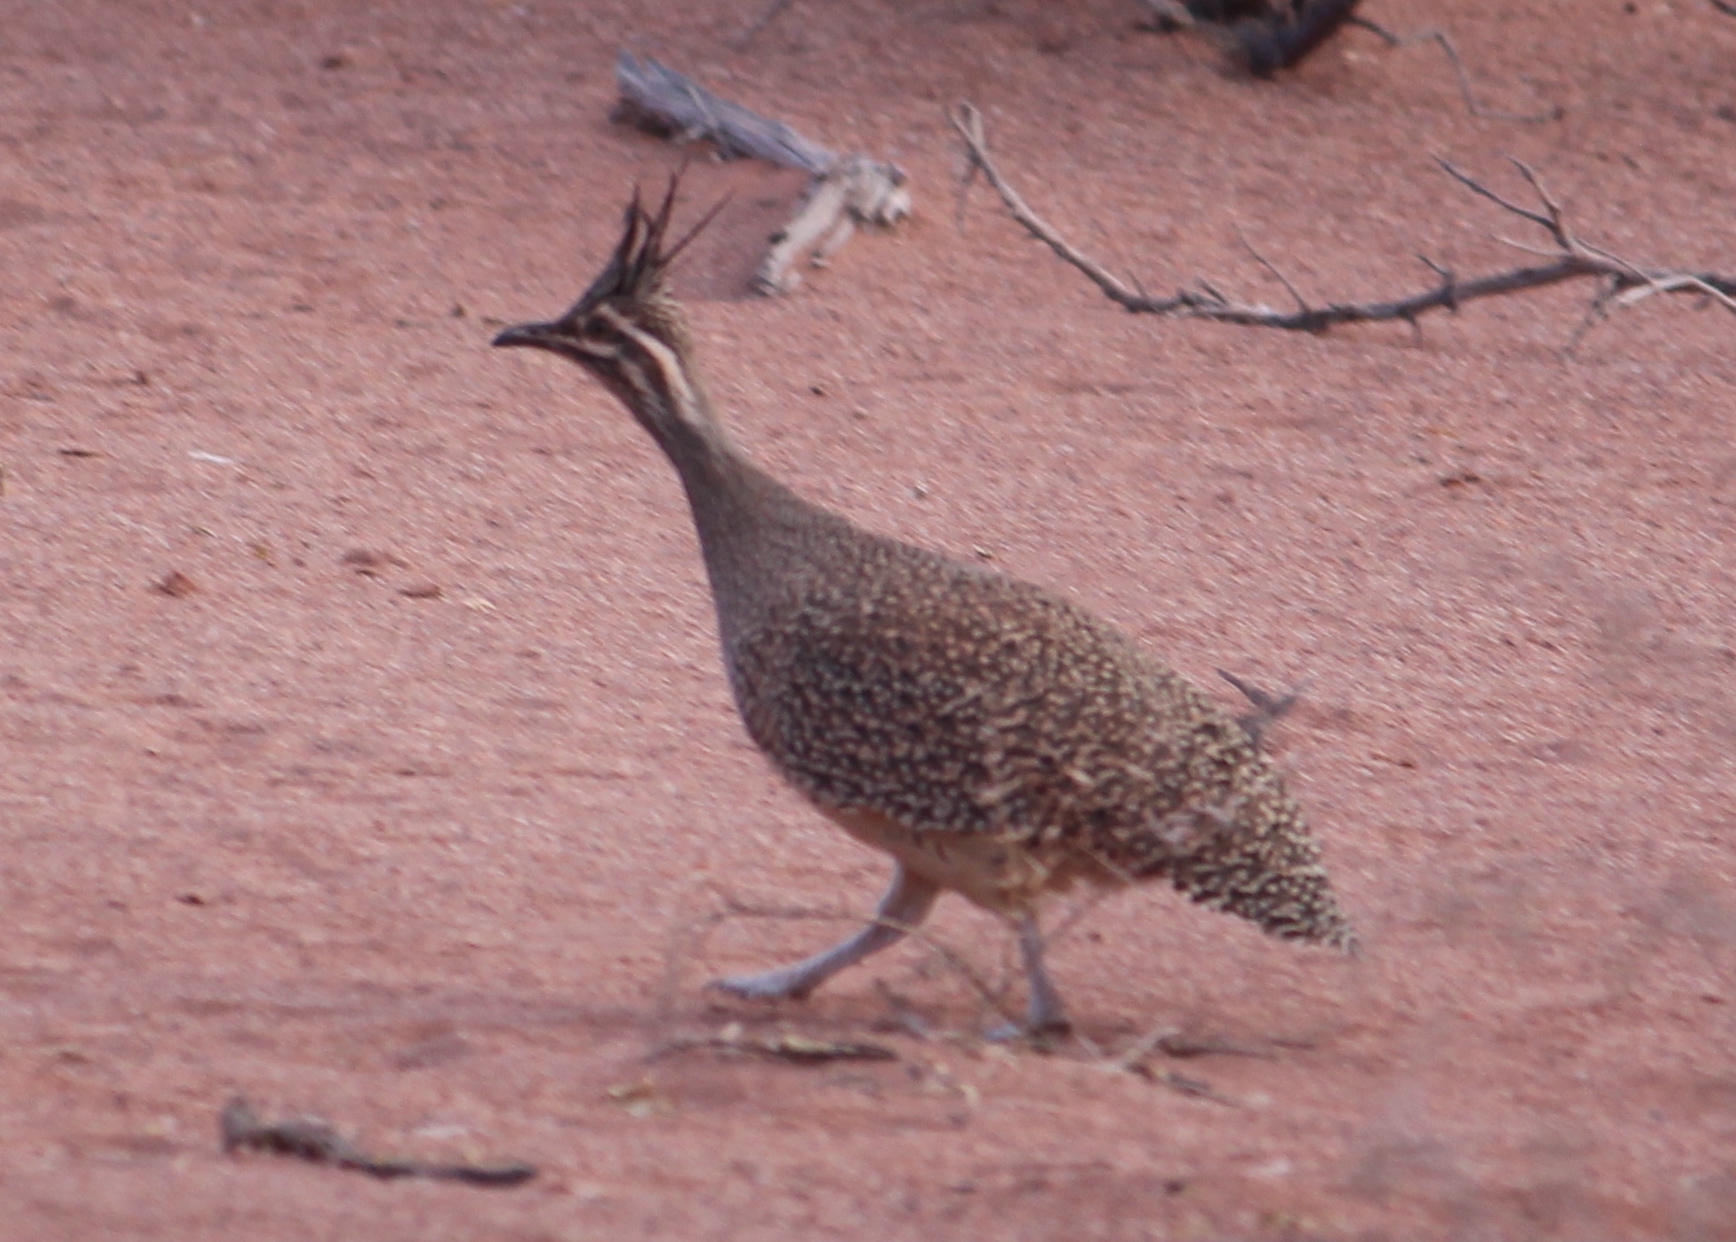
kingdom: Animalia
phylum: Chordata
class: Aves
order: Tinamiformes
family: Tinamidae
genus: Eudromia
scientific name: Eudromia elegans
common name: Elegant crested tinamou
